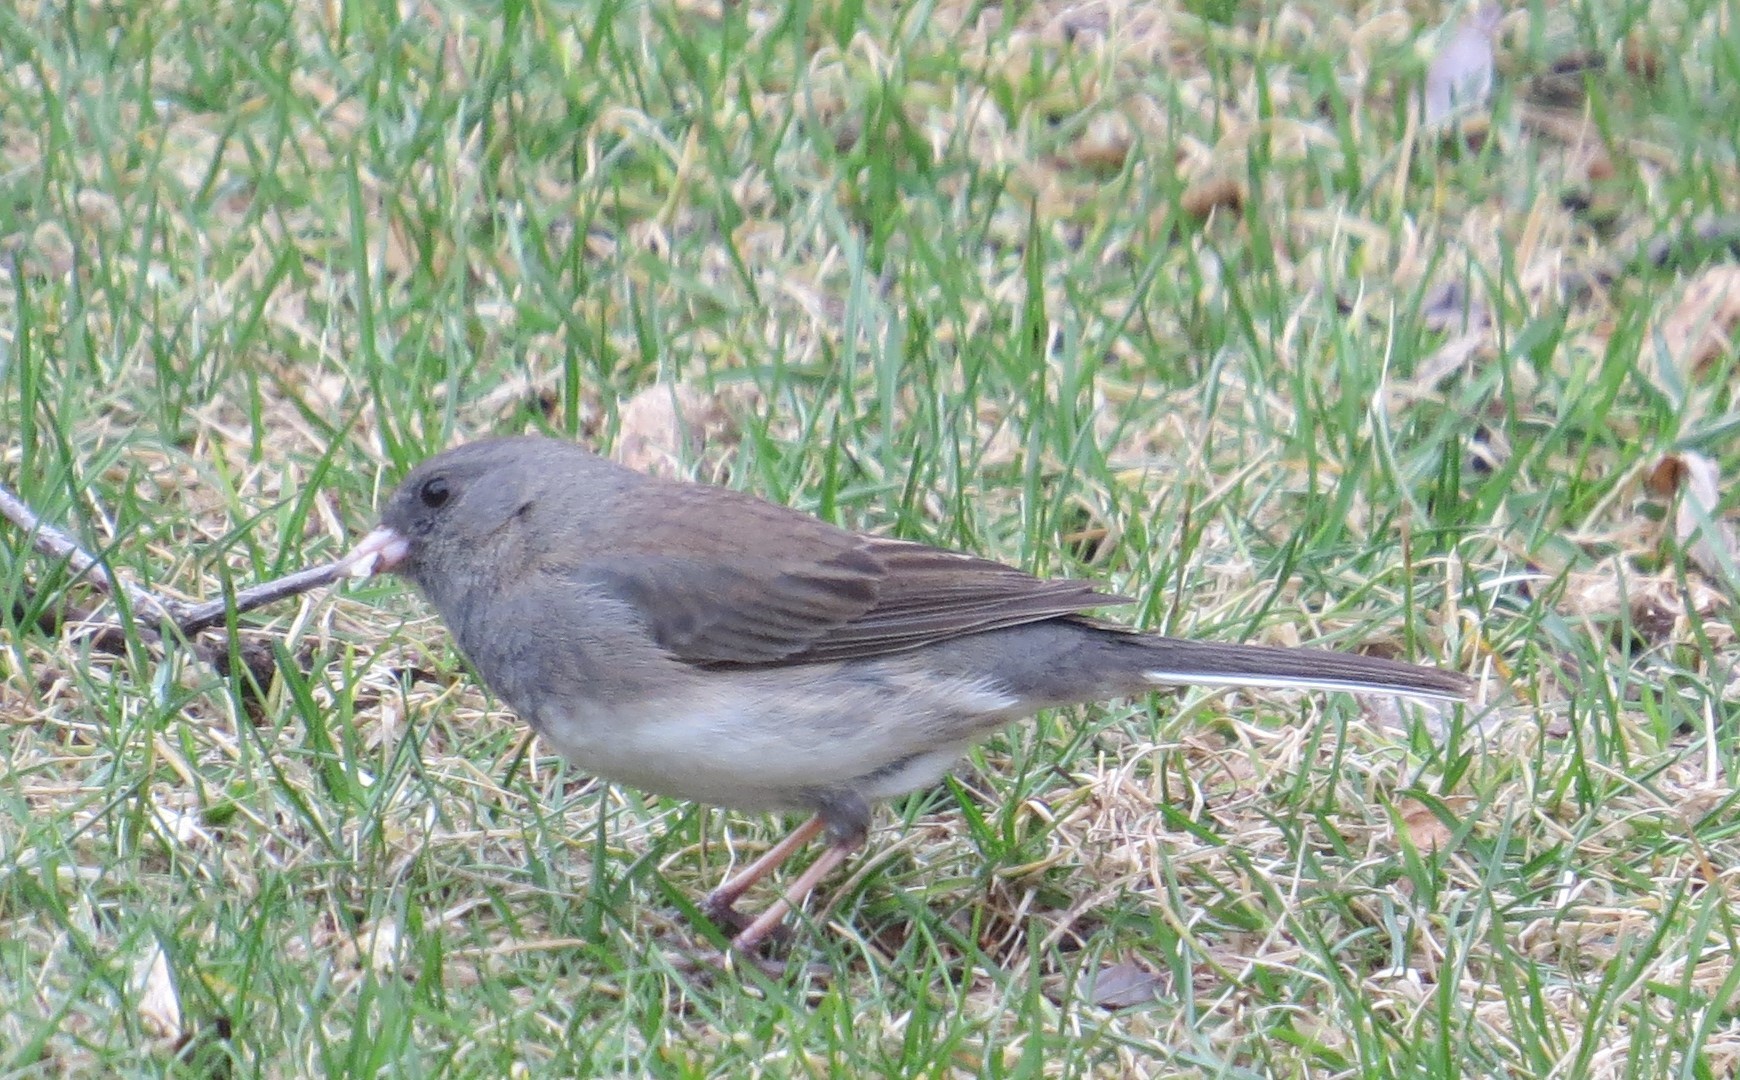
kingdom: Animalia
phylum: Chordata
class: Aves
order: Passeriformes
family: Passerellidae
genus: Junco
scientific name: Junco hyemalis
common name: Dark-eyed junco
